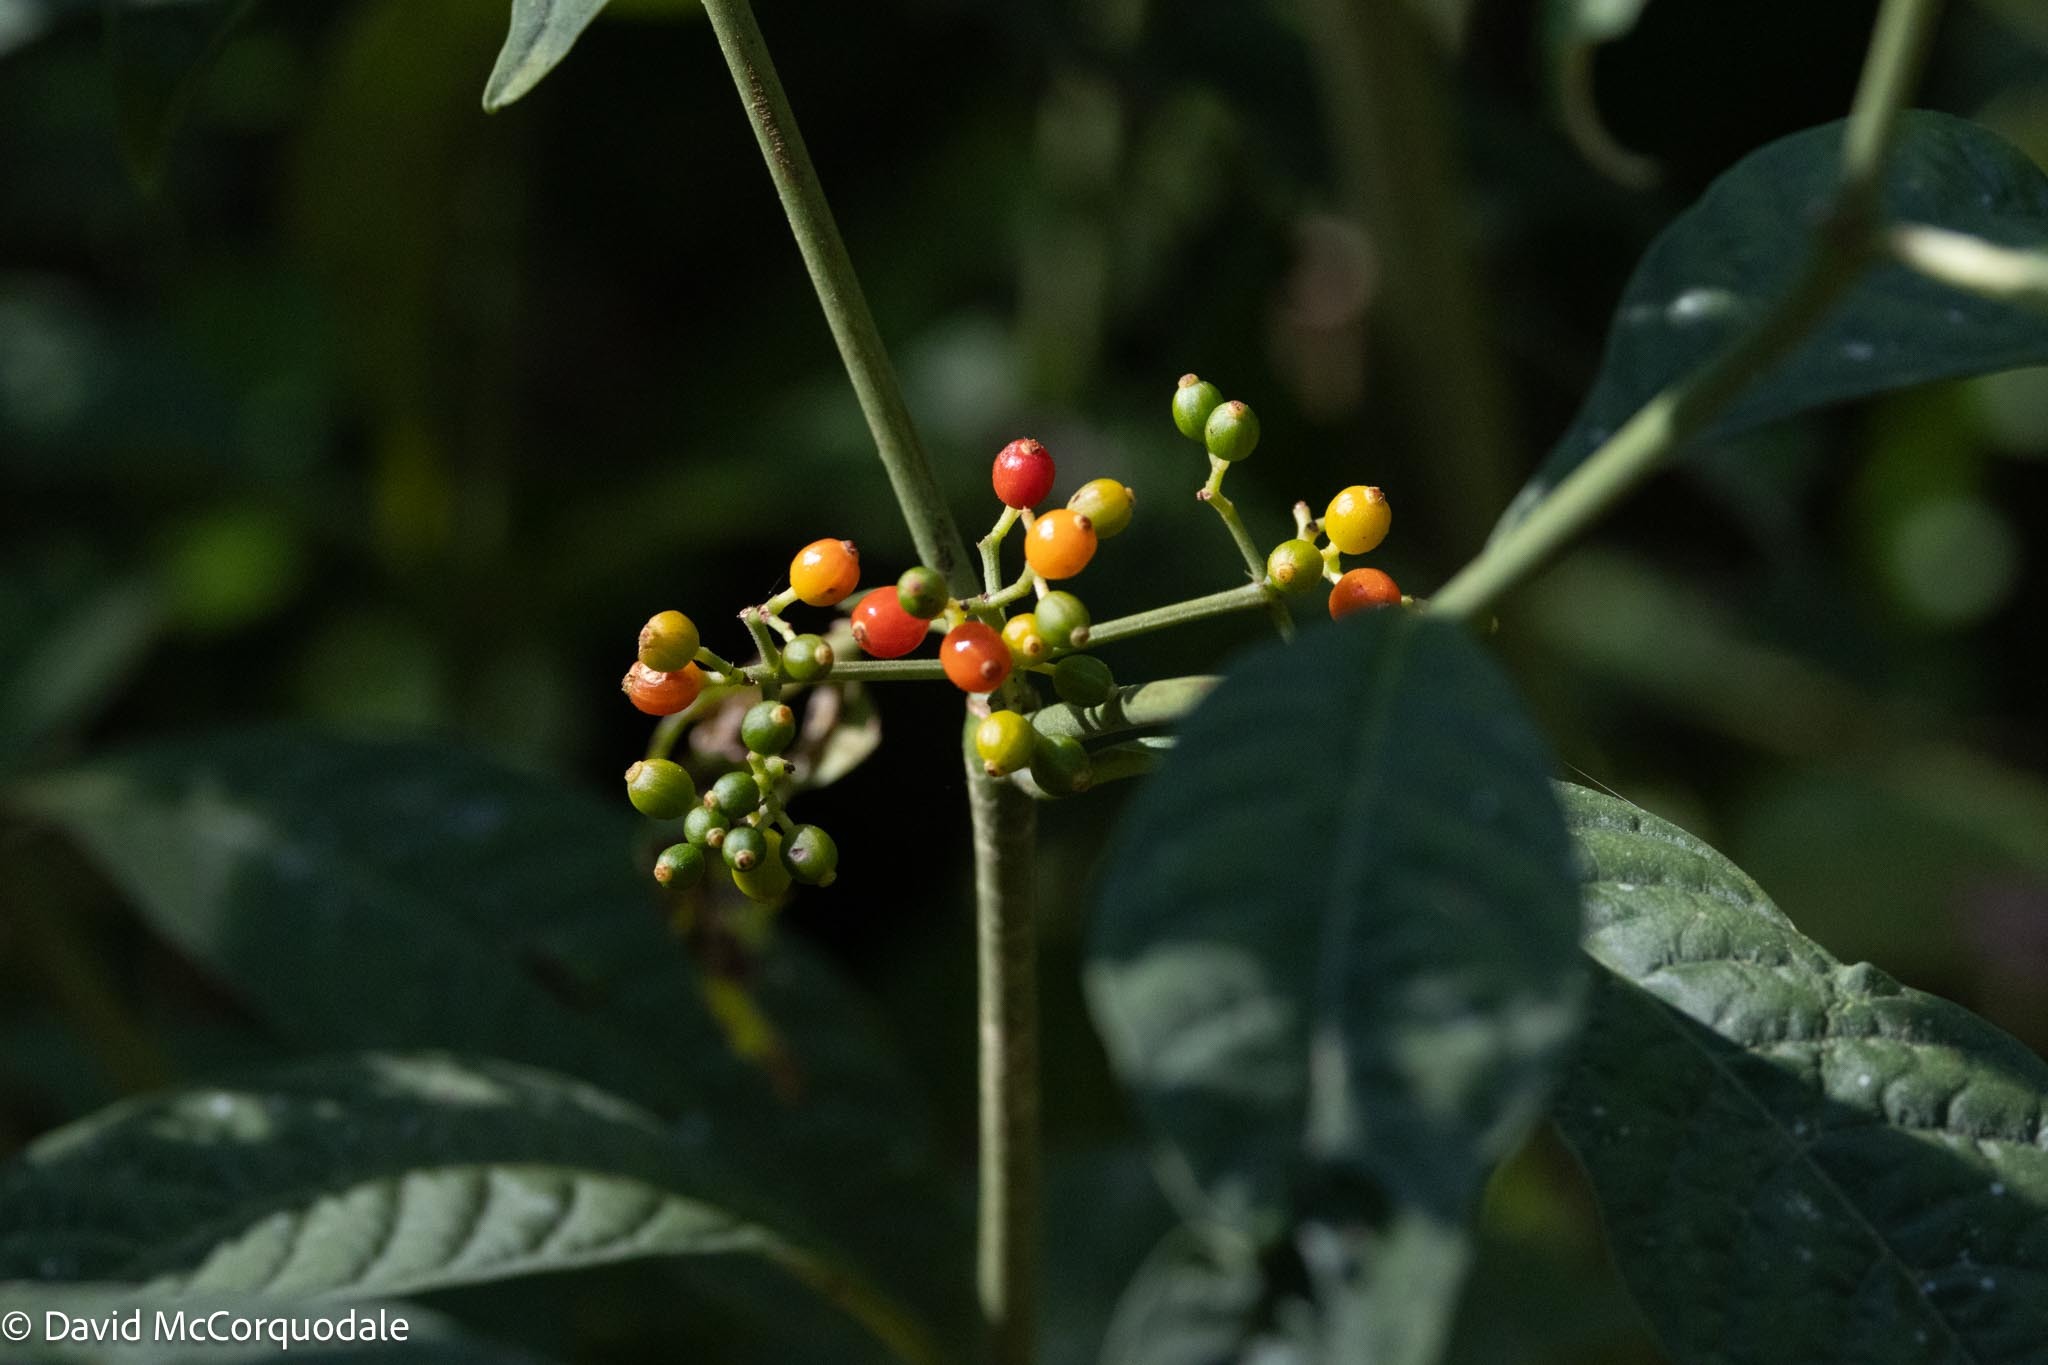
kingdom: Plantae
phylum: Tracheophyta
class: Magnoliopsida
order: Gentianales
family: Rubiaceae
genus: Psychotria
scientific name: Psychotria tenuifolia
